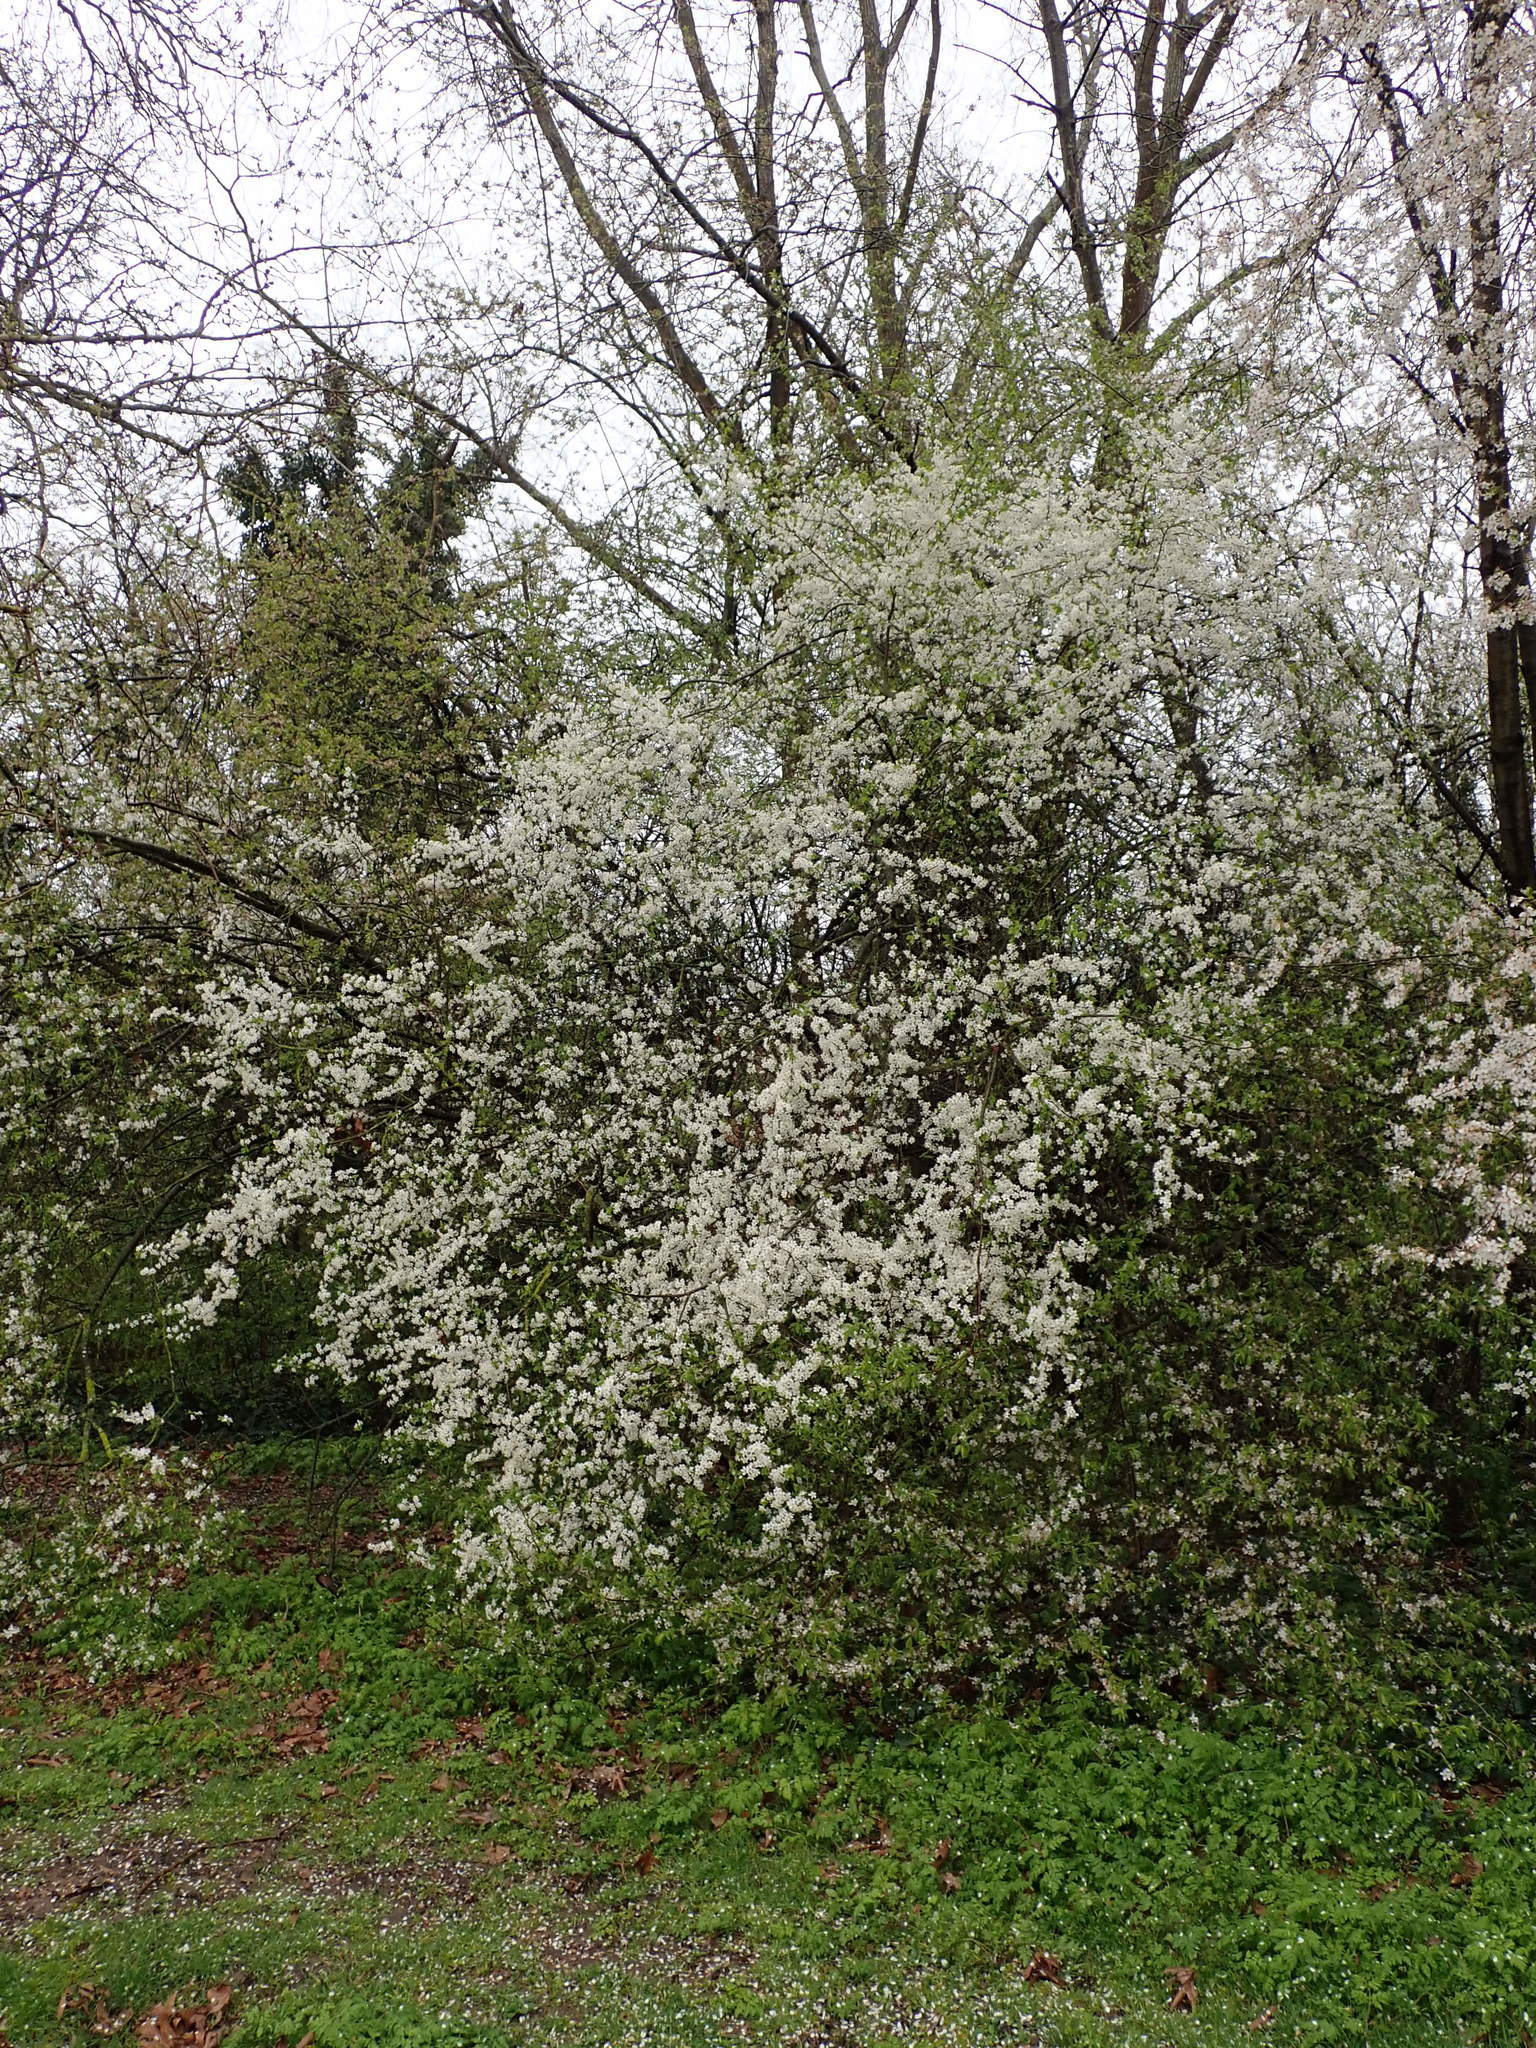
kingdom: Plantae
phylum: Tracheophyta
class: Magnoliopsida
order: Rosales
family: Rosaceae
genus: Prunus
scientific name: Prunus cerasifera
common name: Cherry plum
